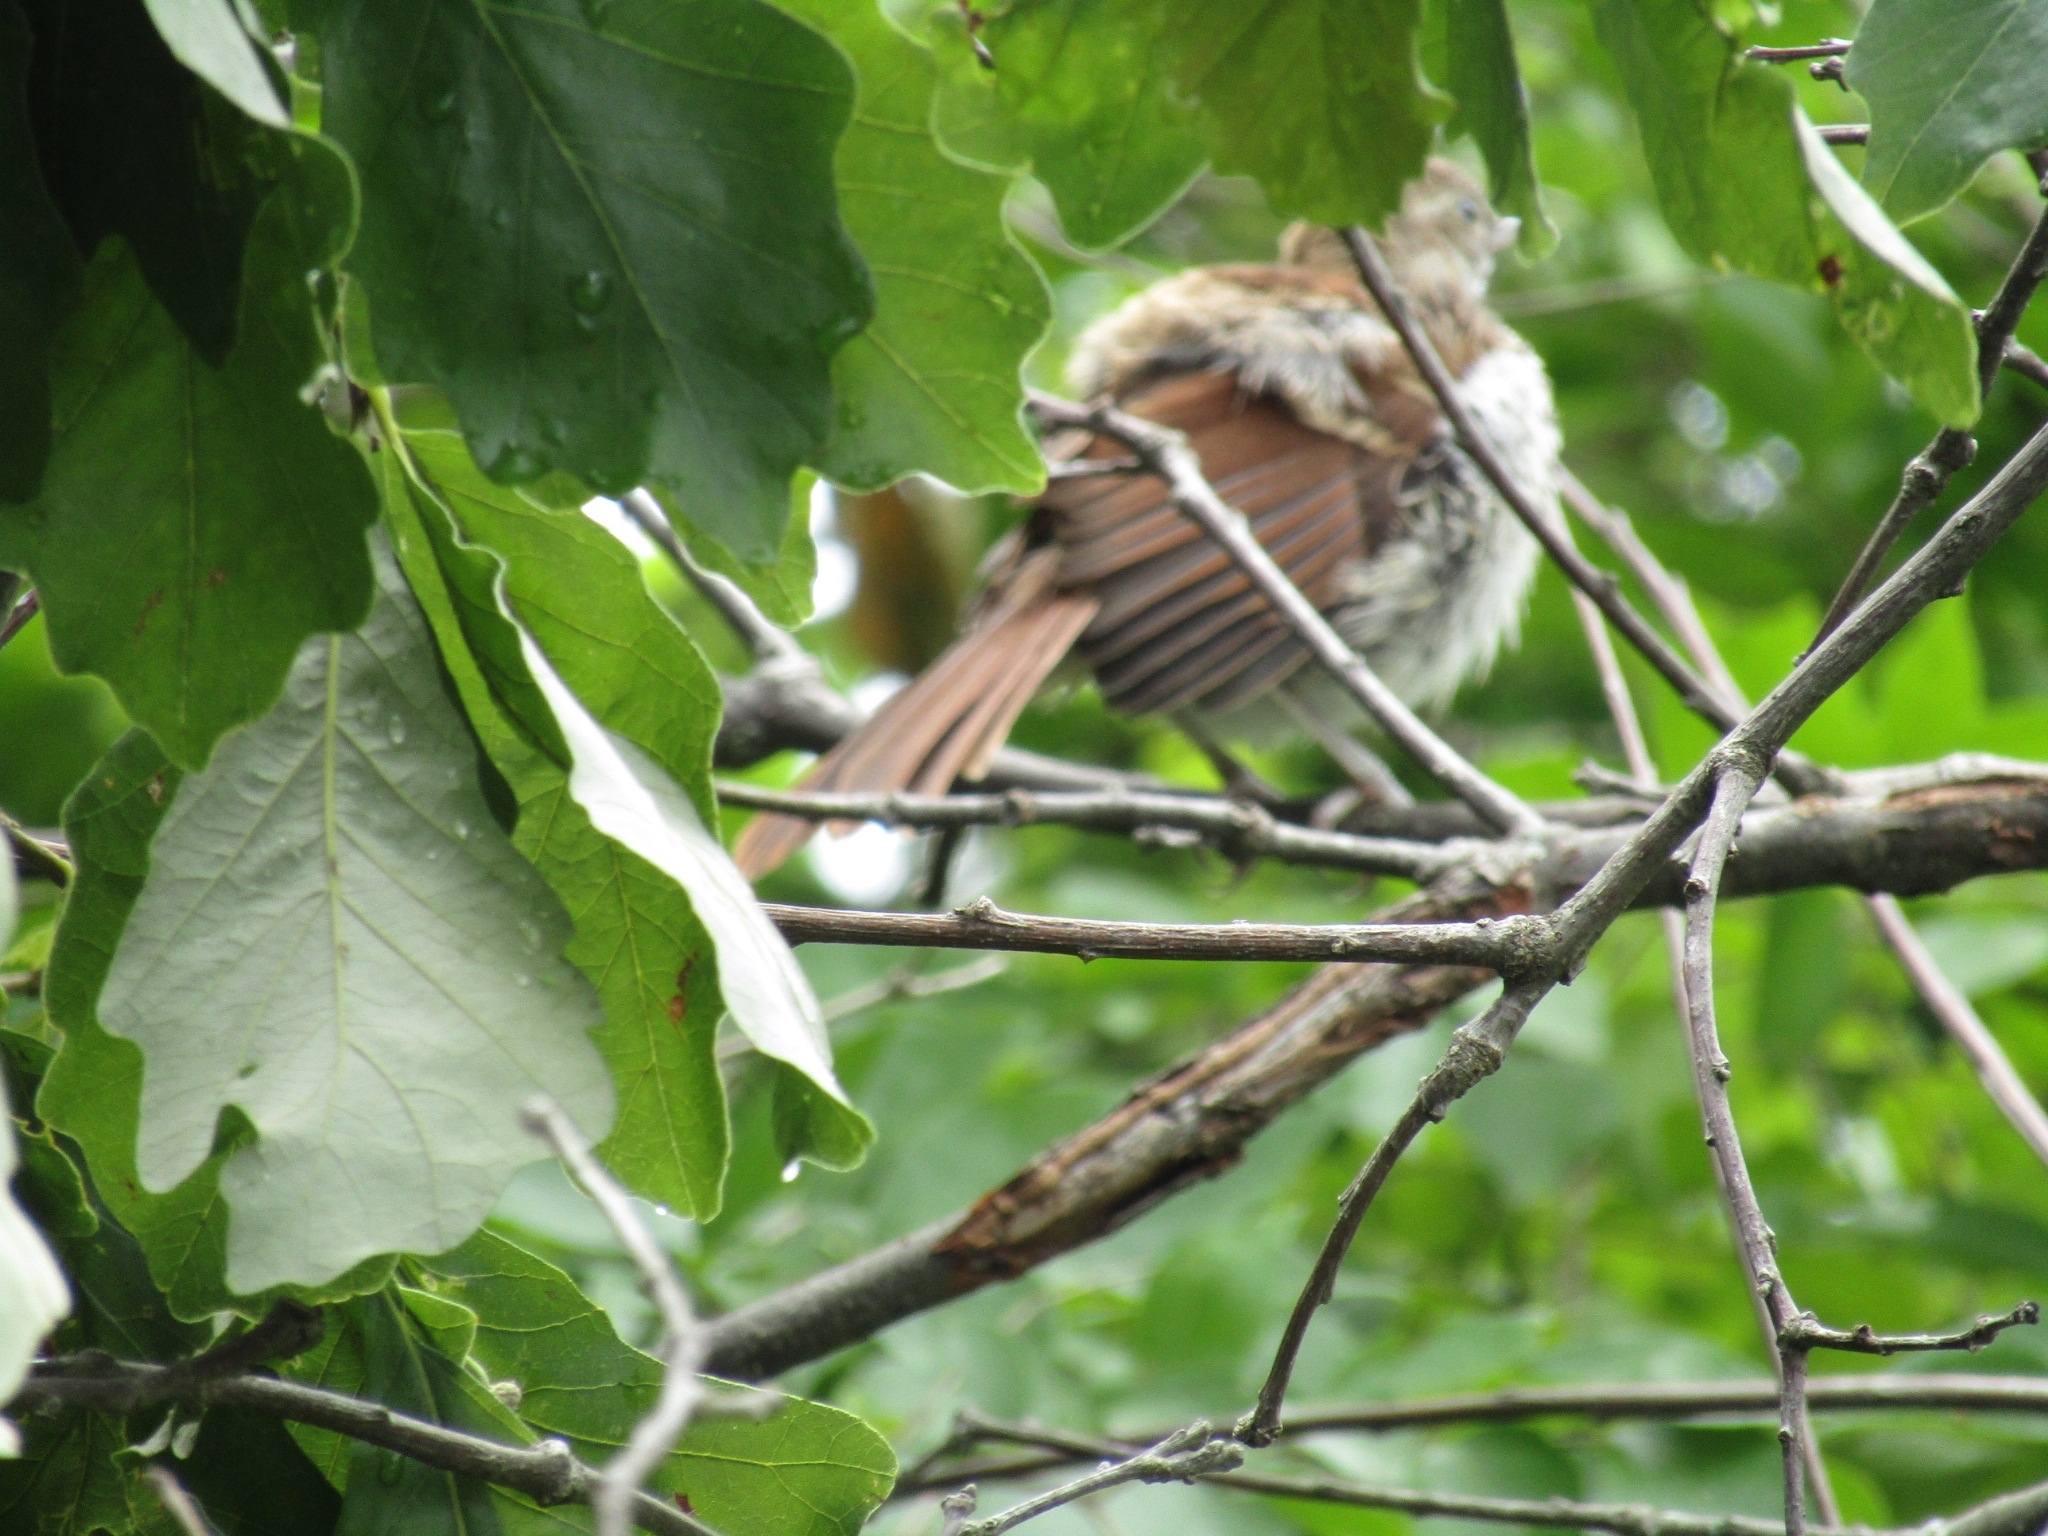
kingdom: Animalia
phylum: Chordata
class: Aves
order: Passeriformes
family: Mimidae
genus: Toxostoma
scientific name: Toxostoma rufum
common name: Brown thrasher
